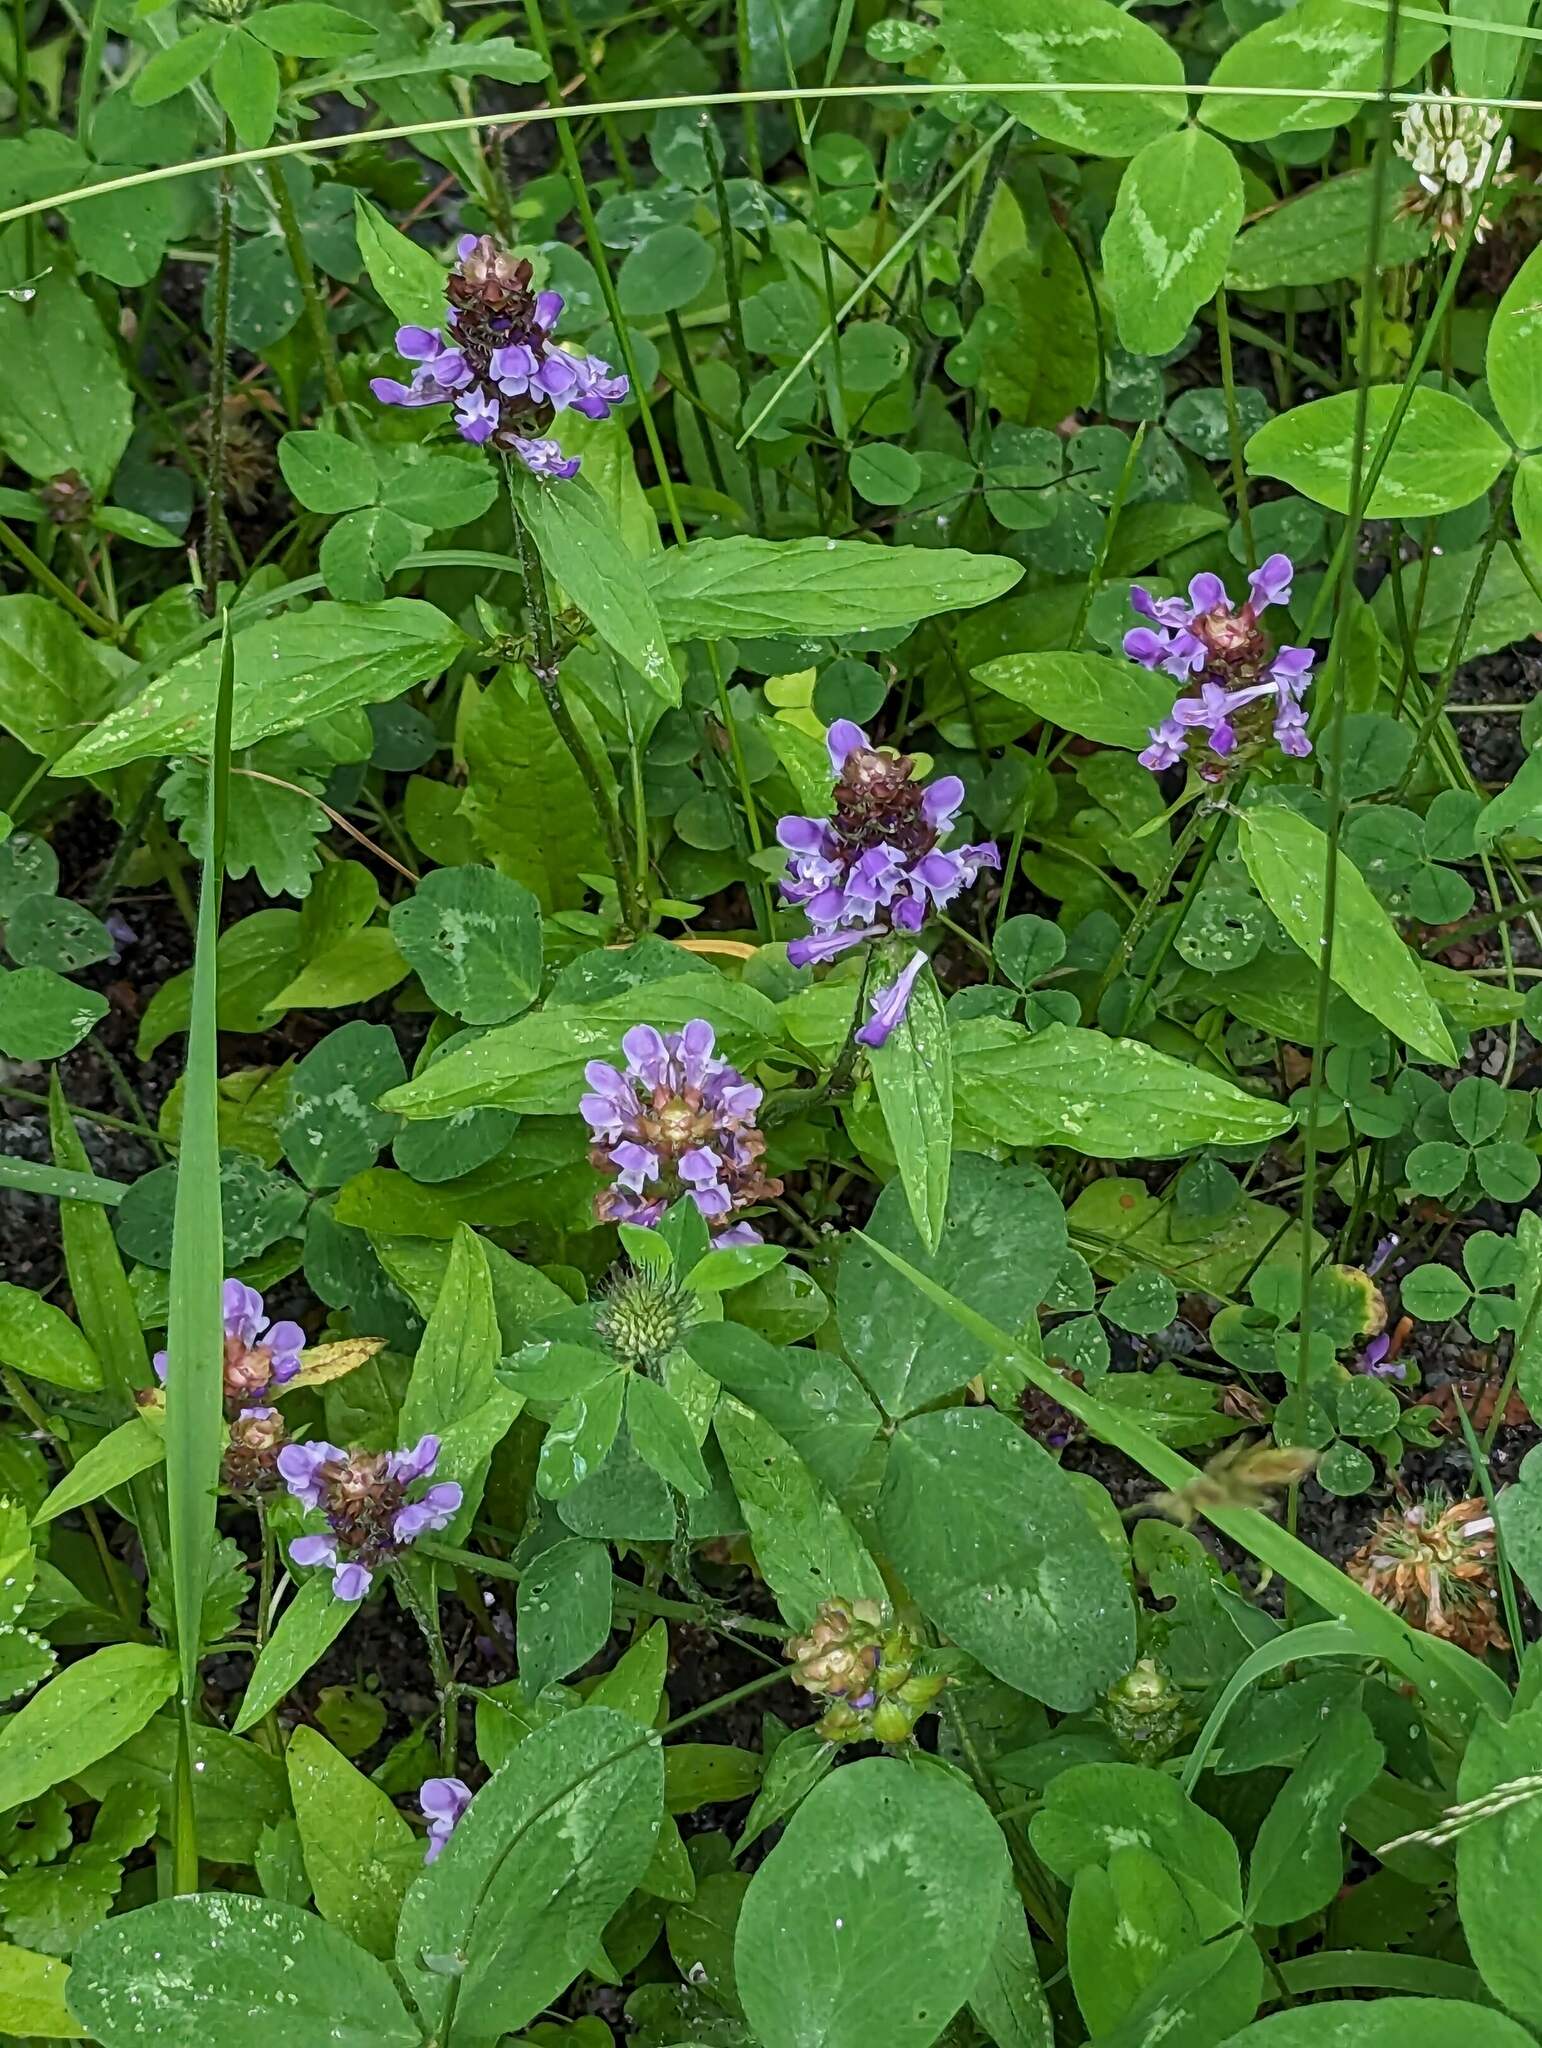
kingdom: Plantae
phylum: Tracheophyta
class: Magnoliopsida
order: Lamiales
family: Lamiaceae
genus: Prunella
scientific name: Prunella vulgaris
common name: Heal-all
